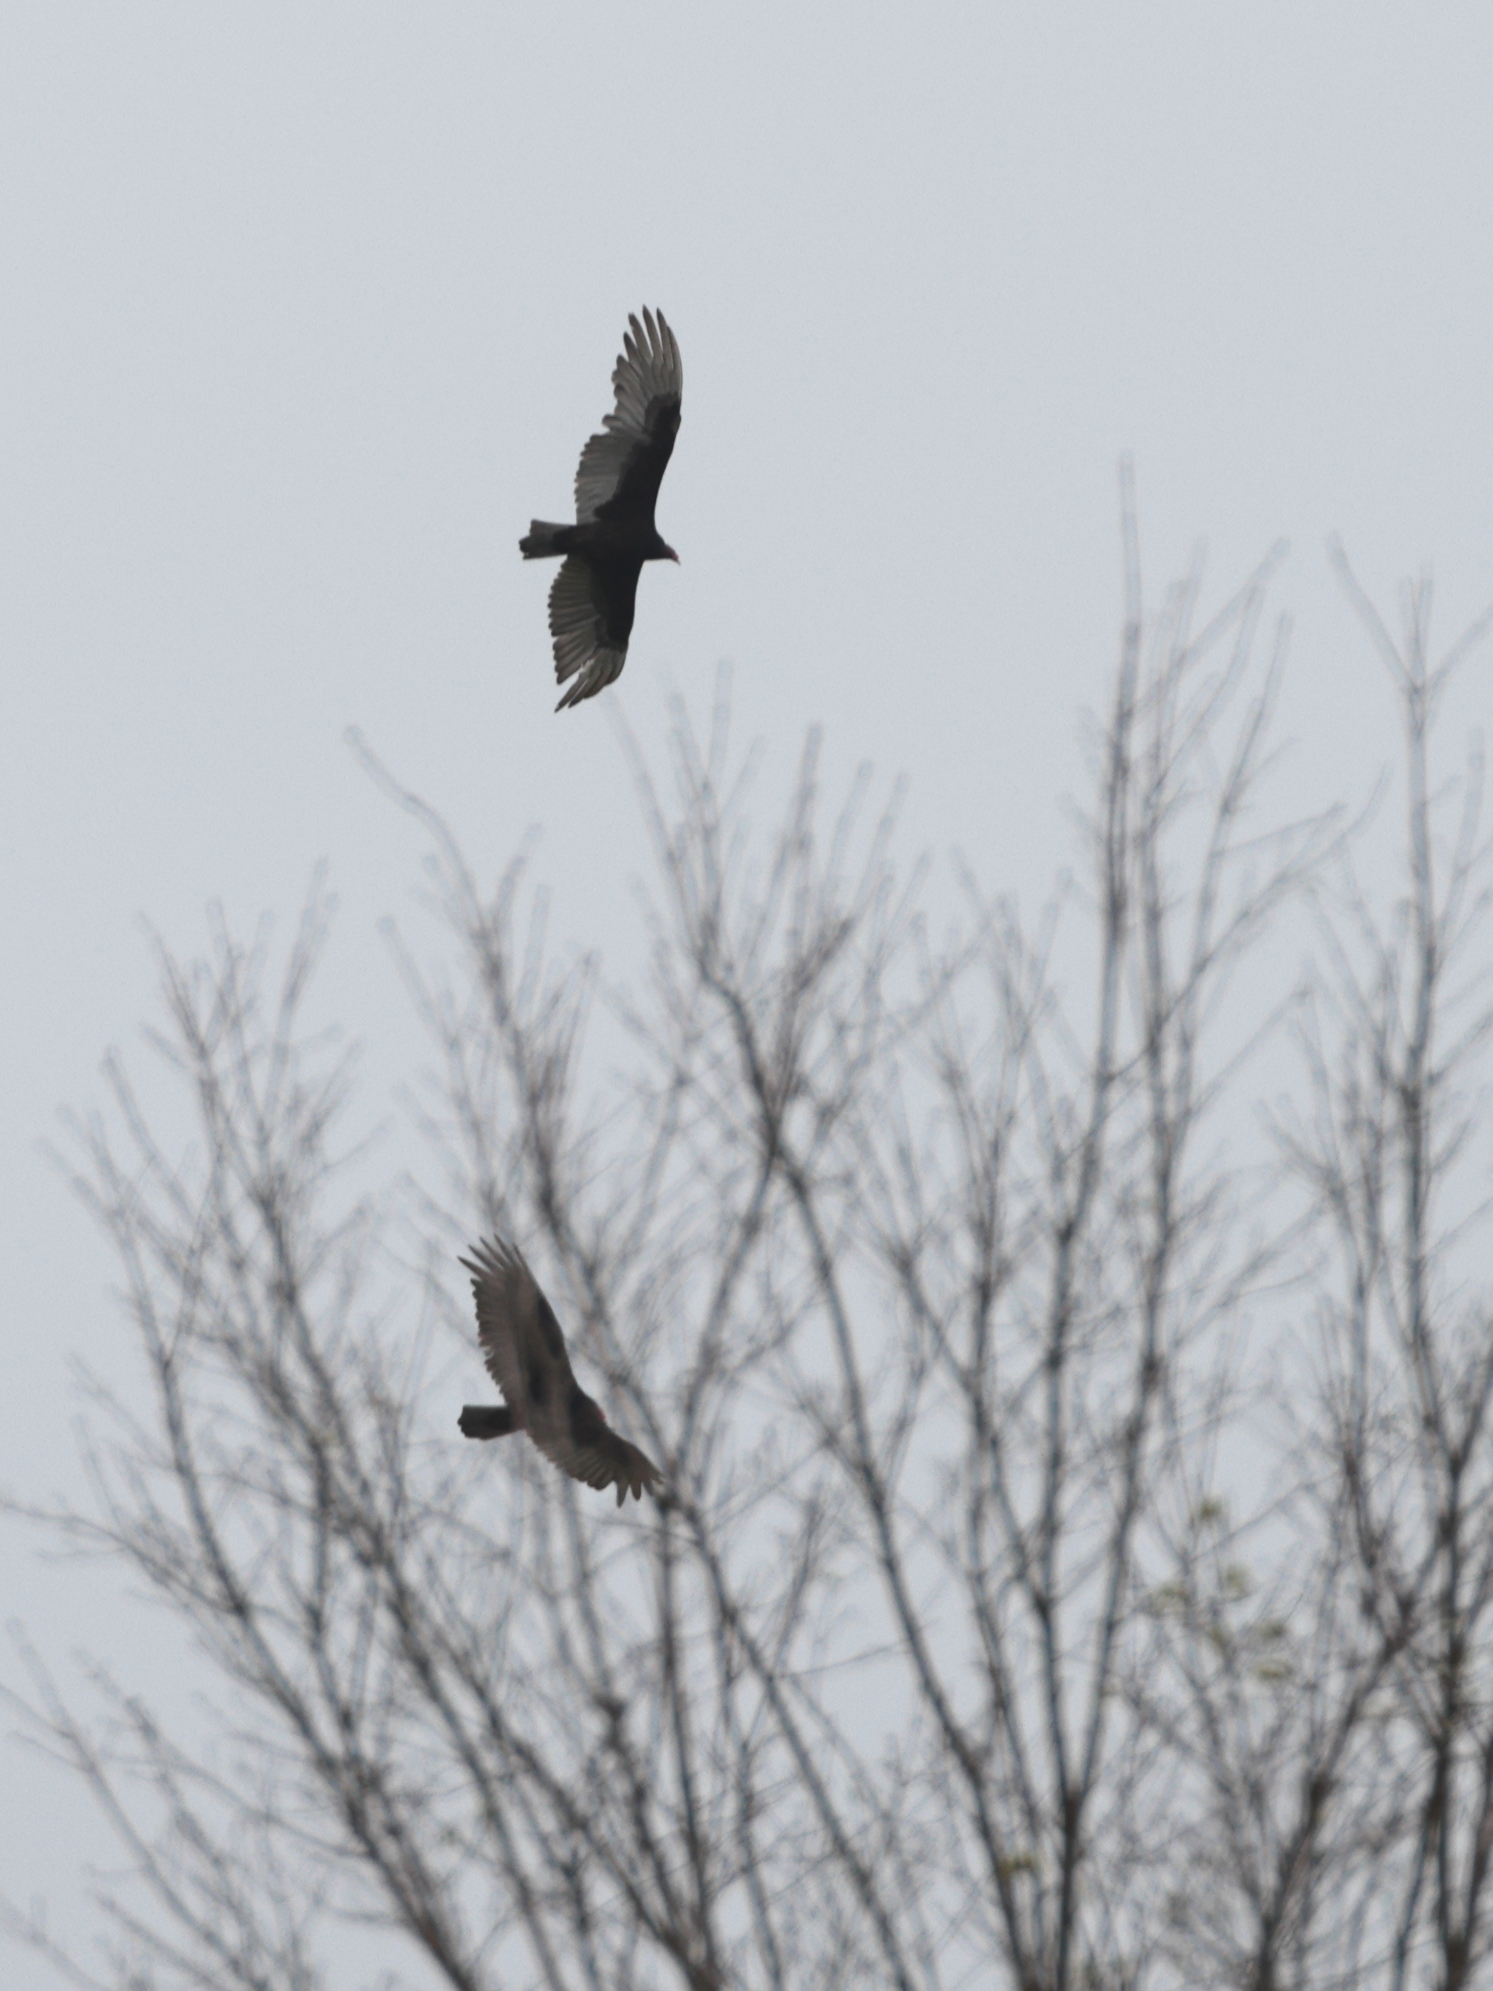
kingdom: Animalia
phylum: Chordata
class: Aves
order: Accipitriformes
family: Cathartidae
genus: Cathartes
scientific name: Cathartes aura
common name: Turkey vulture
